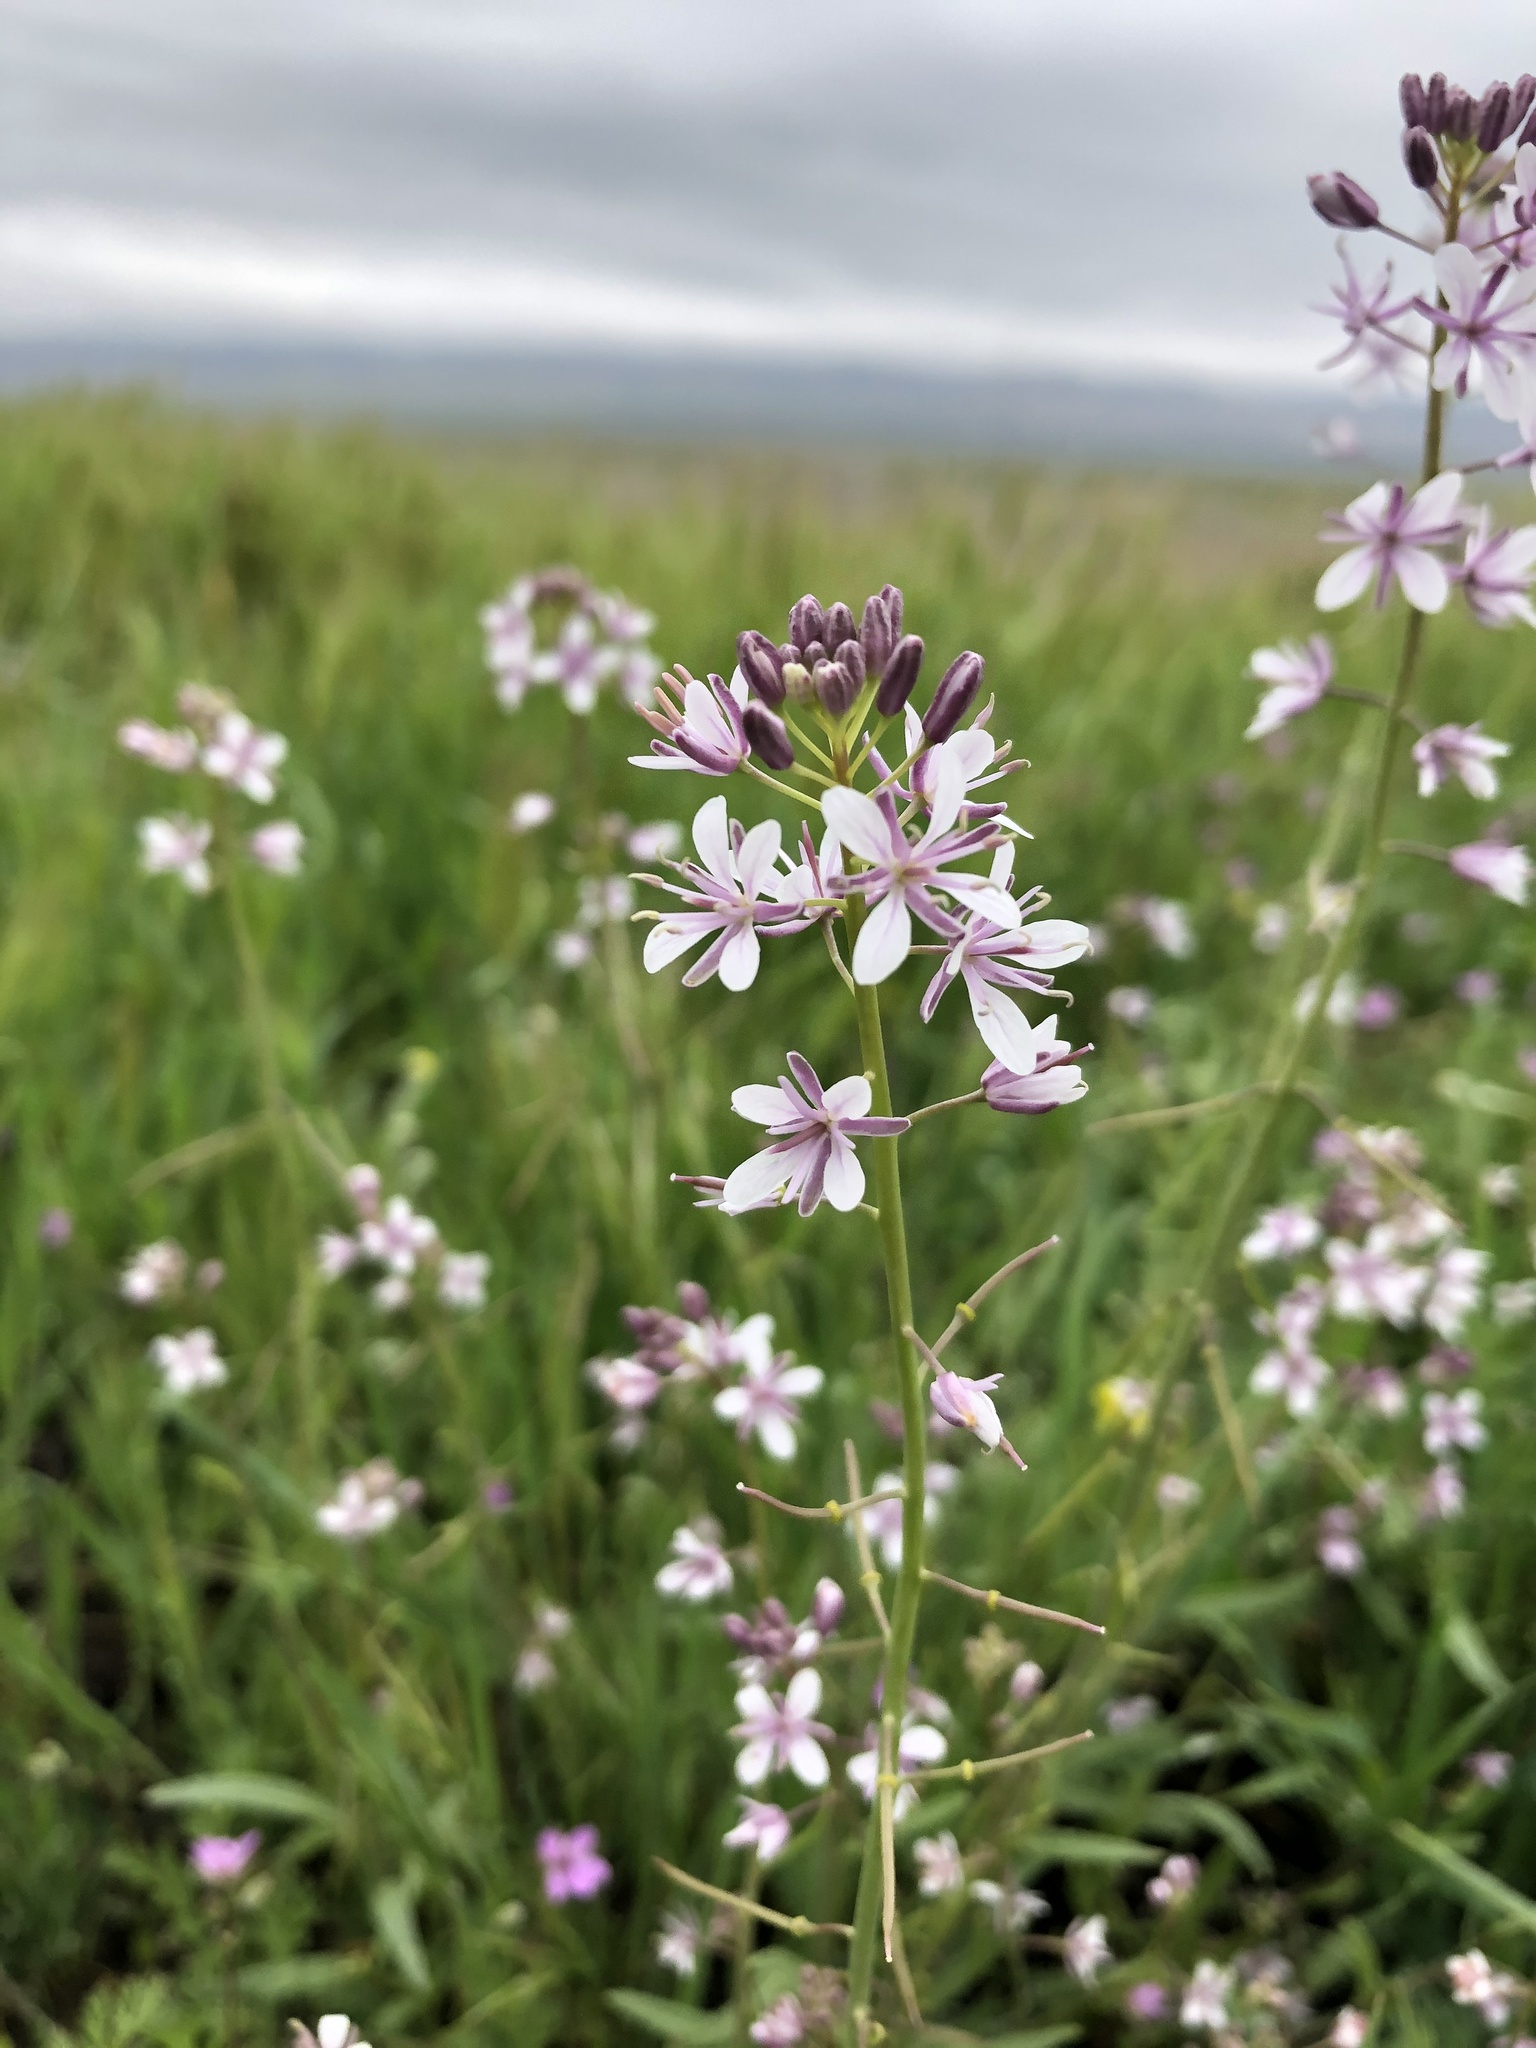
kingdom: Plantae
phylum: Tracheophyta
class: Magnoliopsida
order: Brassicales
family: Brassicaceae
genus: Streptanthus
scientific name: Streptanthus anceps
